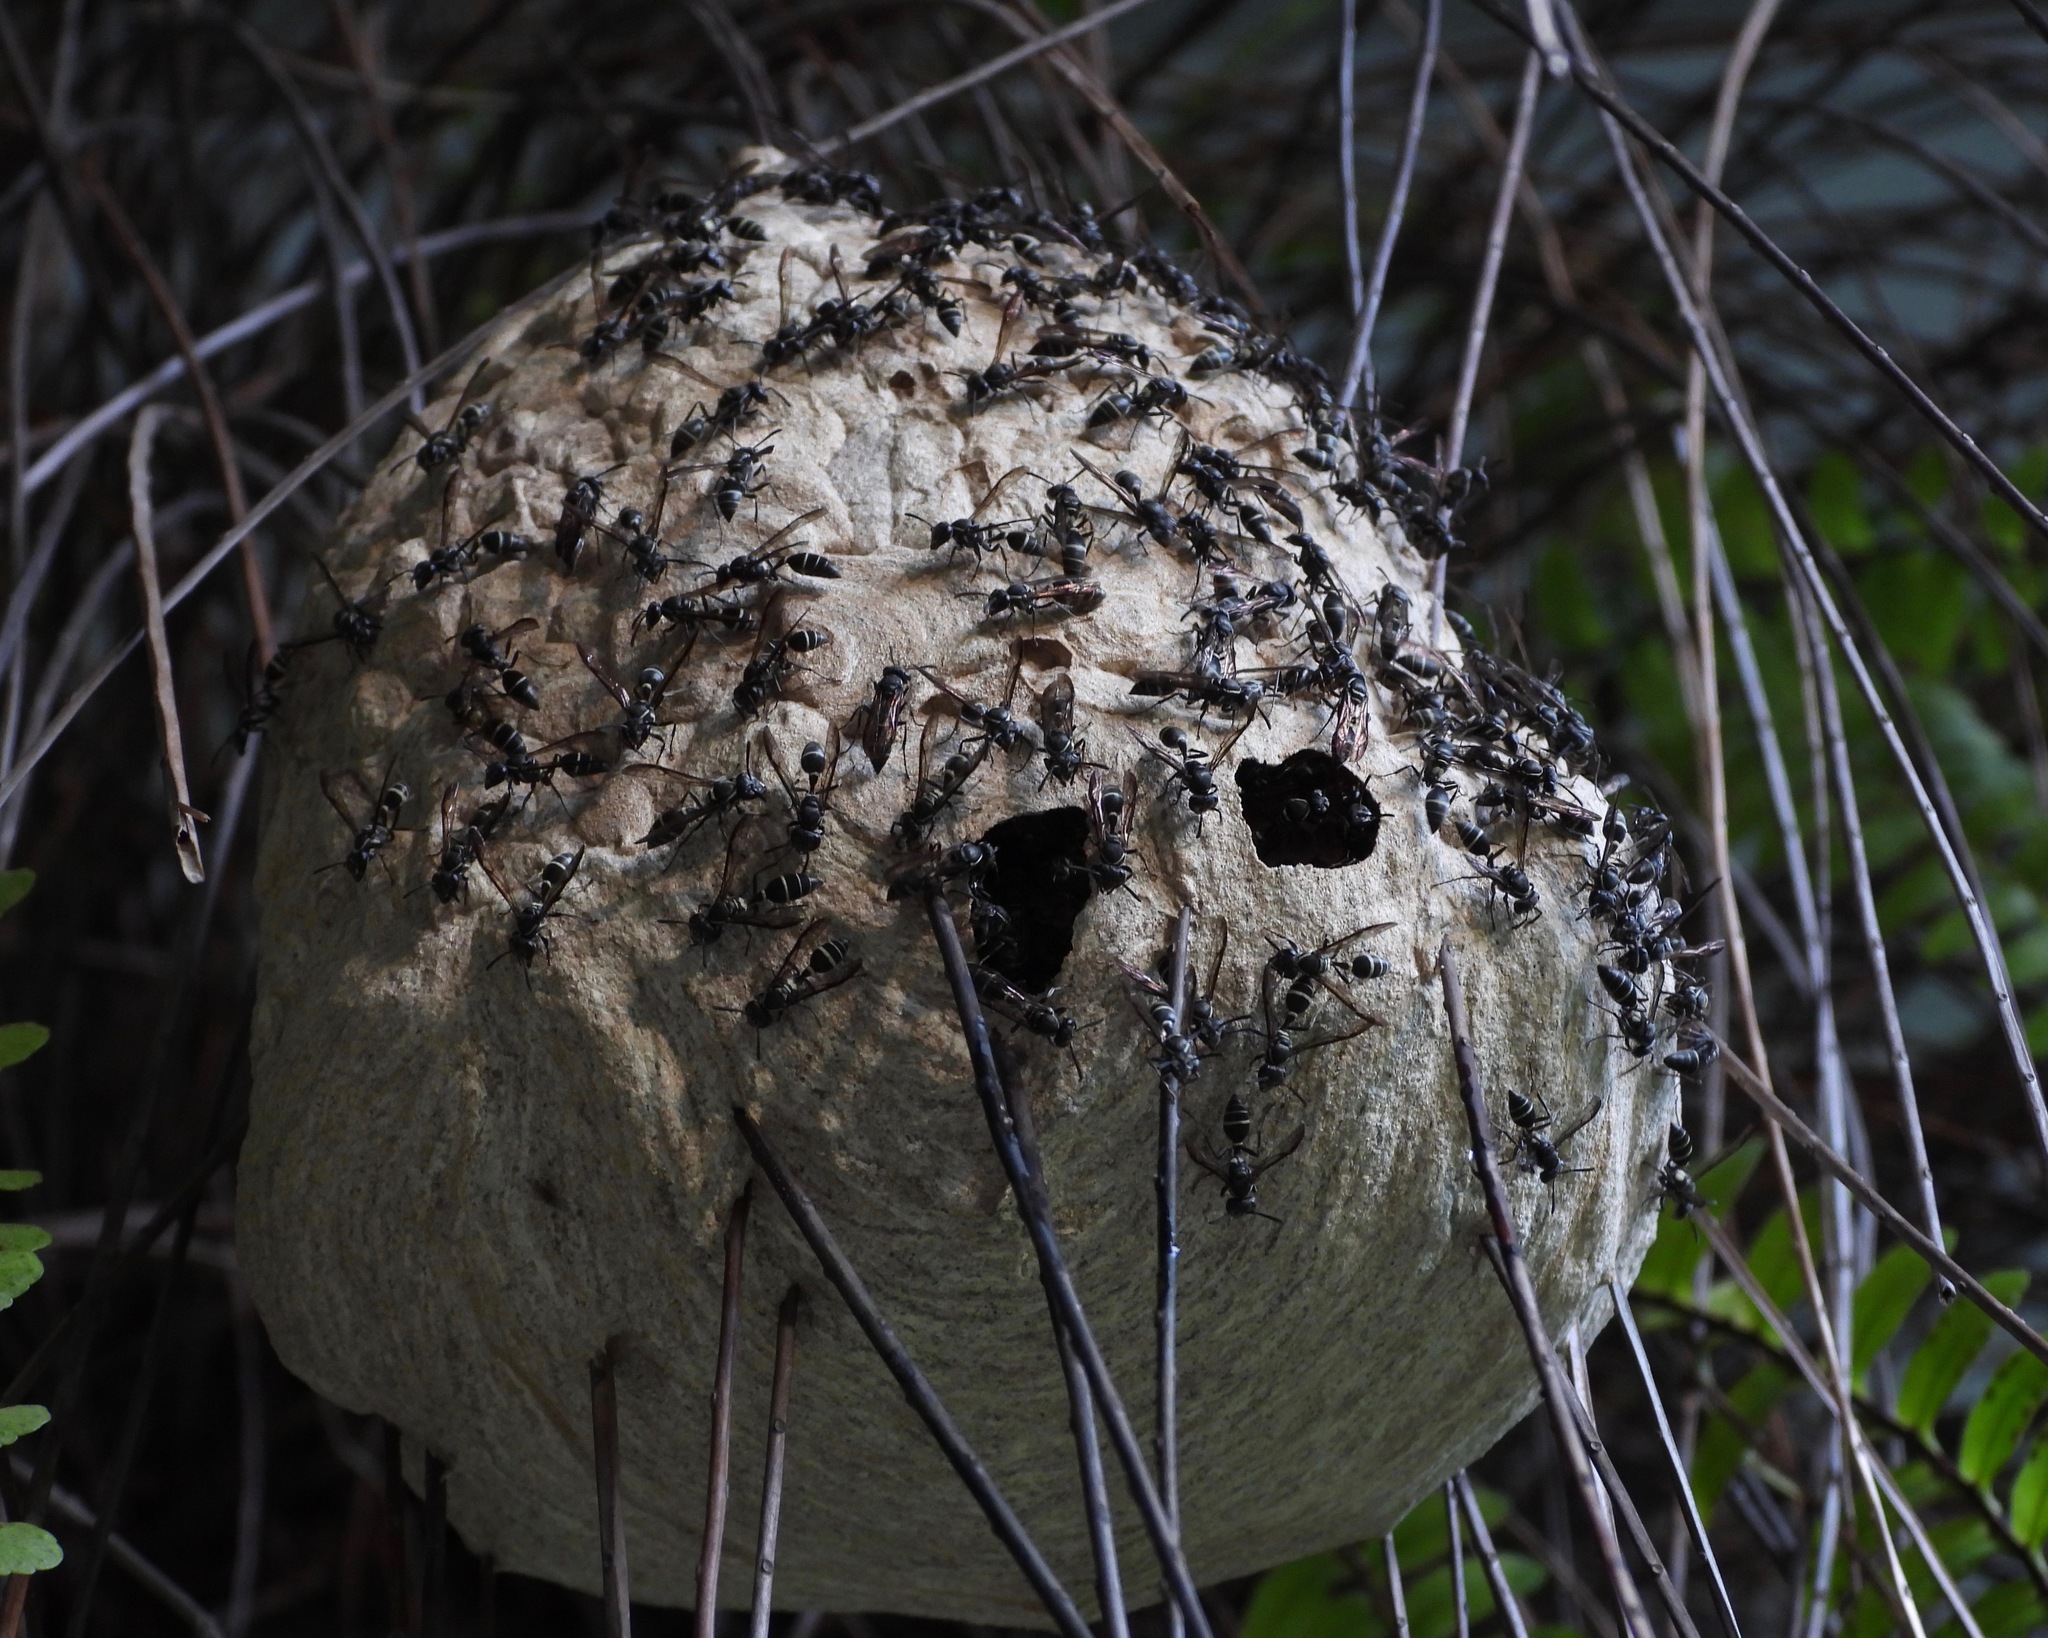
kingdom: Animalia
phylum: Arthropoda
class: Insecta
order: Hymenoptera
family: Eumenidae
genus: Polybia
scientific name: Polybia plebeja
